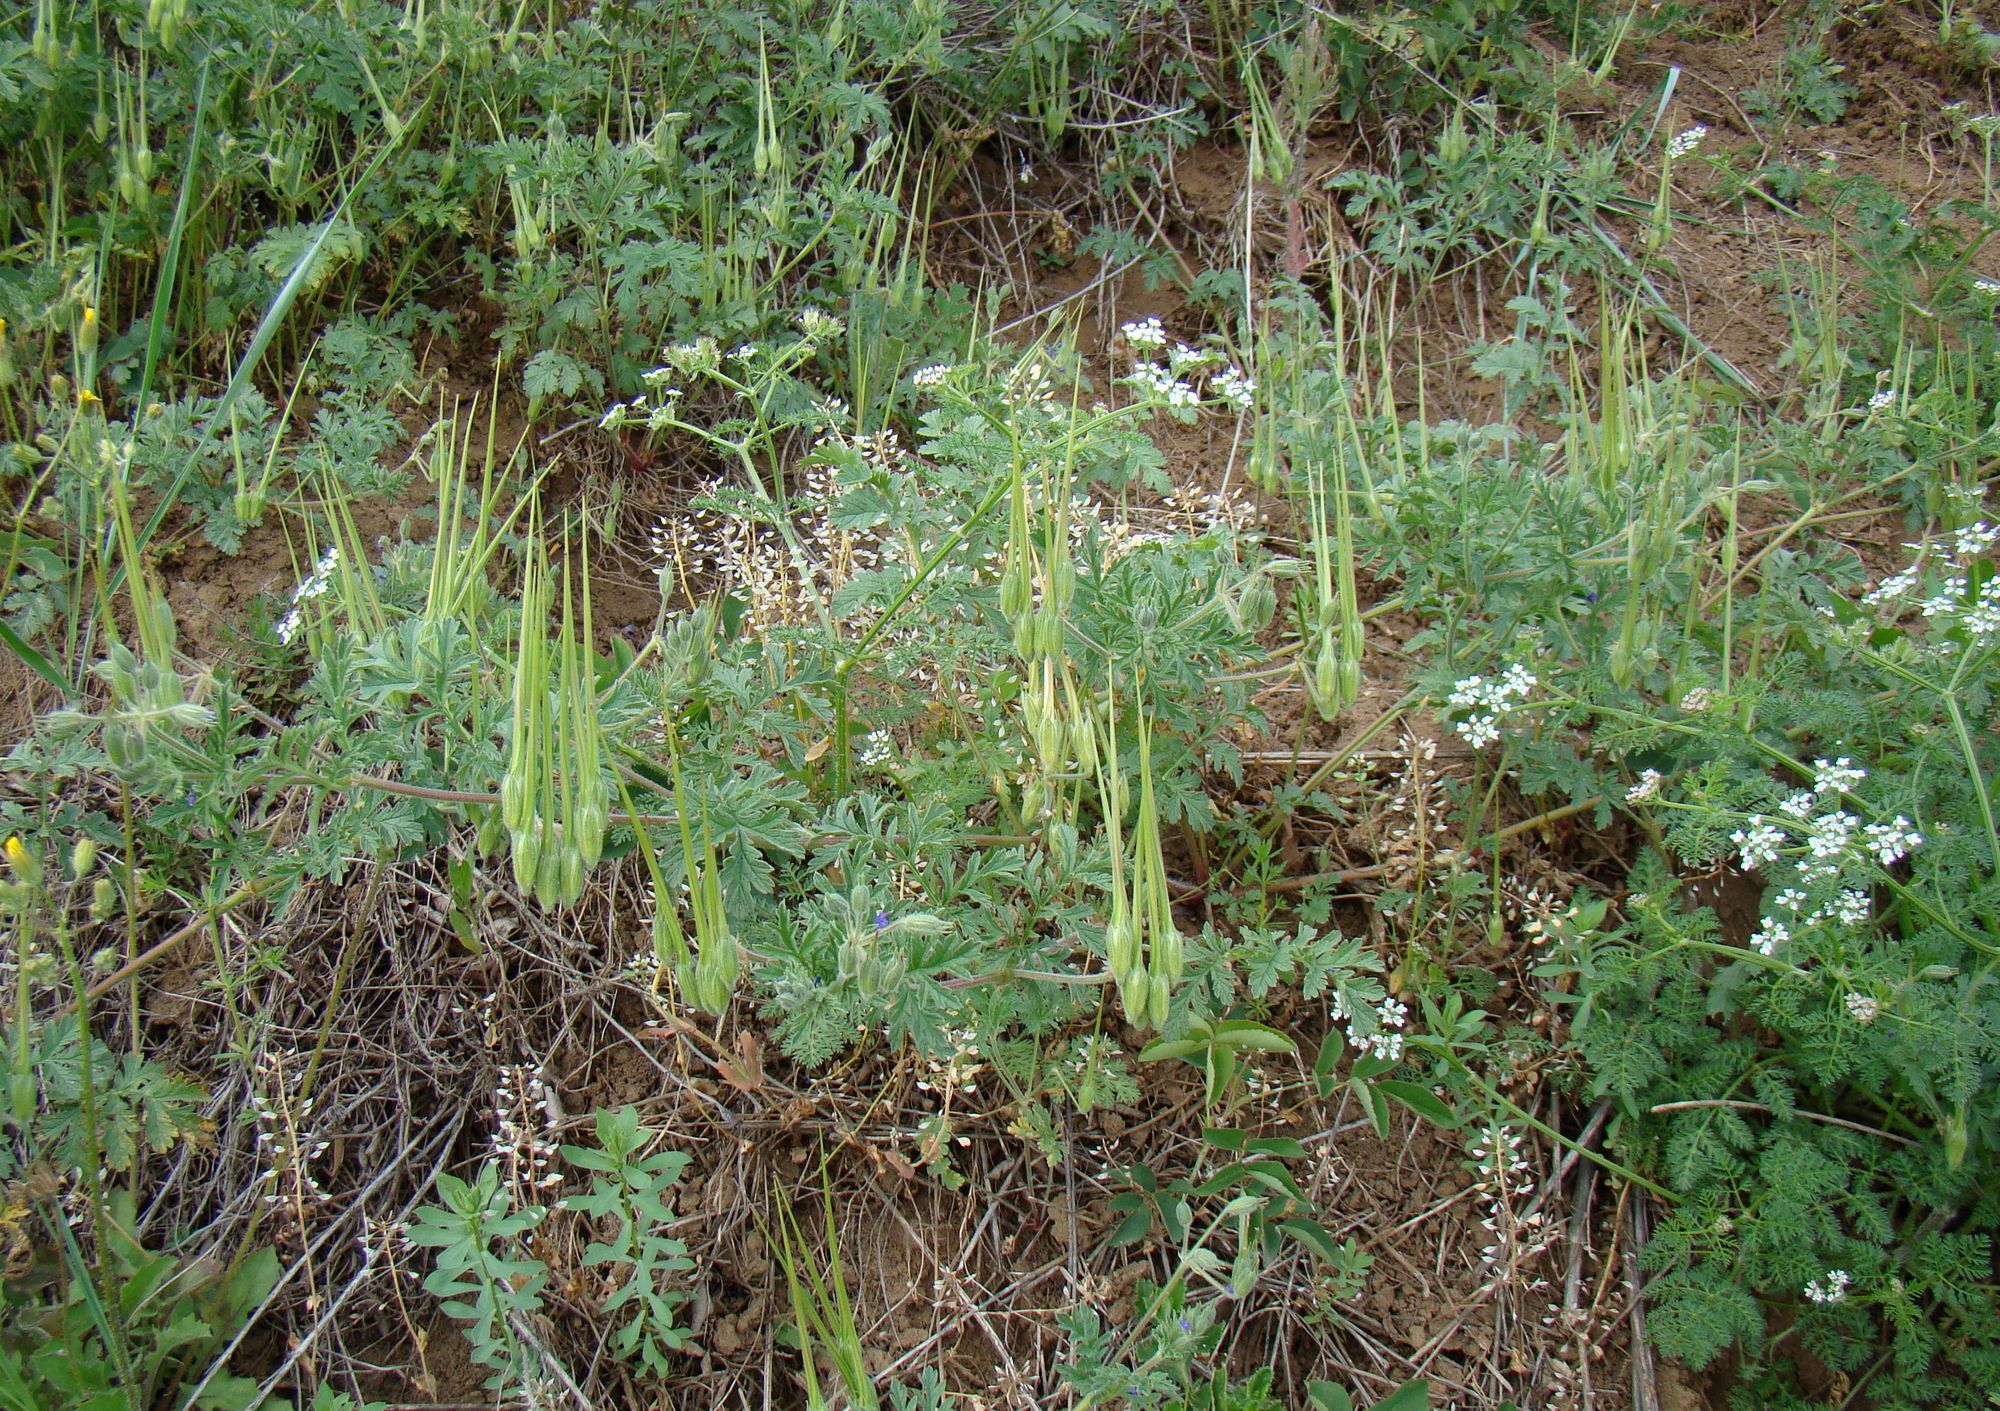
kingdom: Plantae
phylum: Tracheophyta
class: Magnoliopsida
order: Geraniales
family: Geraniaceae
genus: Erodium
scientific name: Erodium ciconium
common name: Common stork's bill
